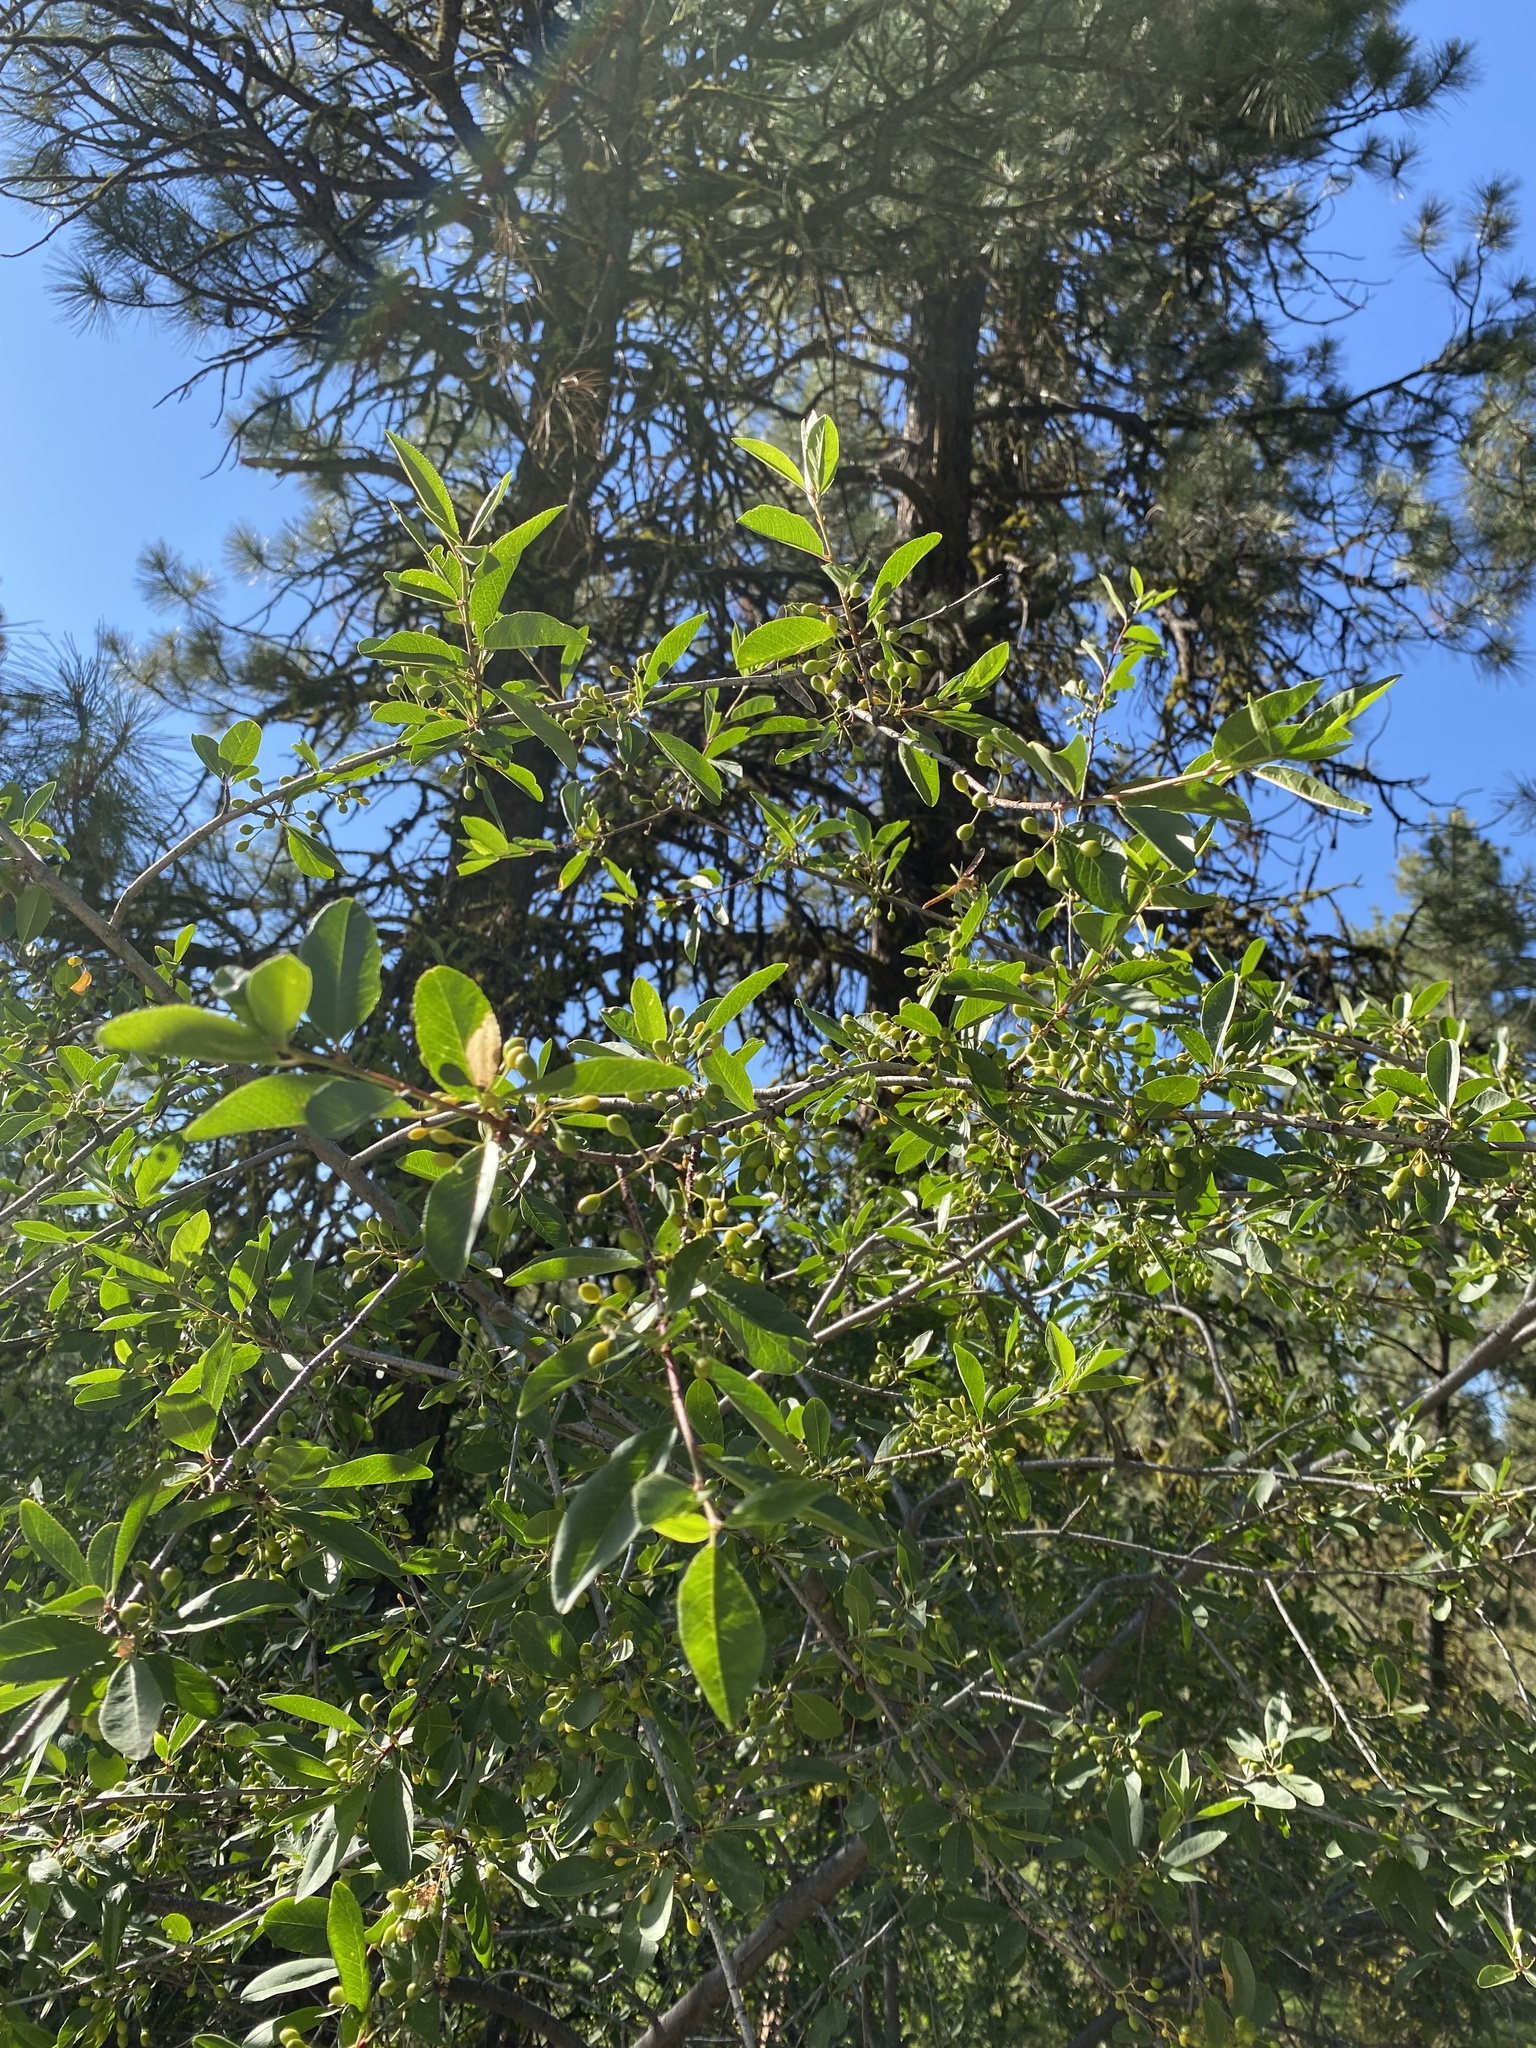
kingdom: Plantae
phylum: Tracheophyta
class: Magnoliopsida
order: Rosales
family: Rosaceae
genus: Prunus
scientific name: Prunus emarginata
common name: Bitter cherry
